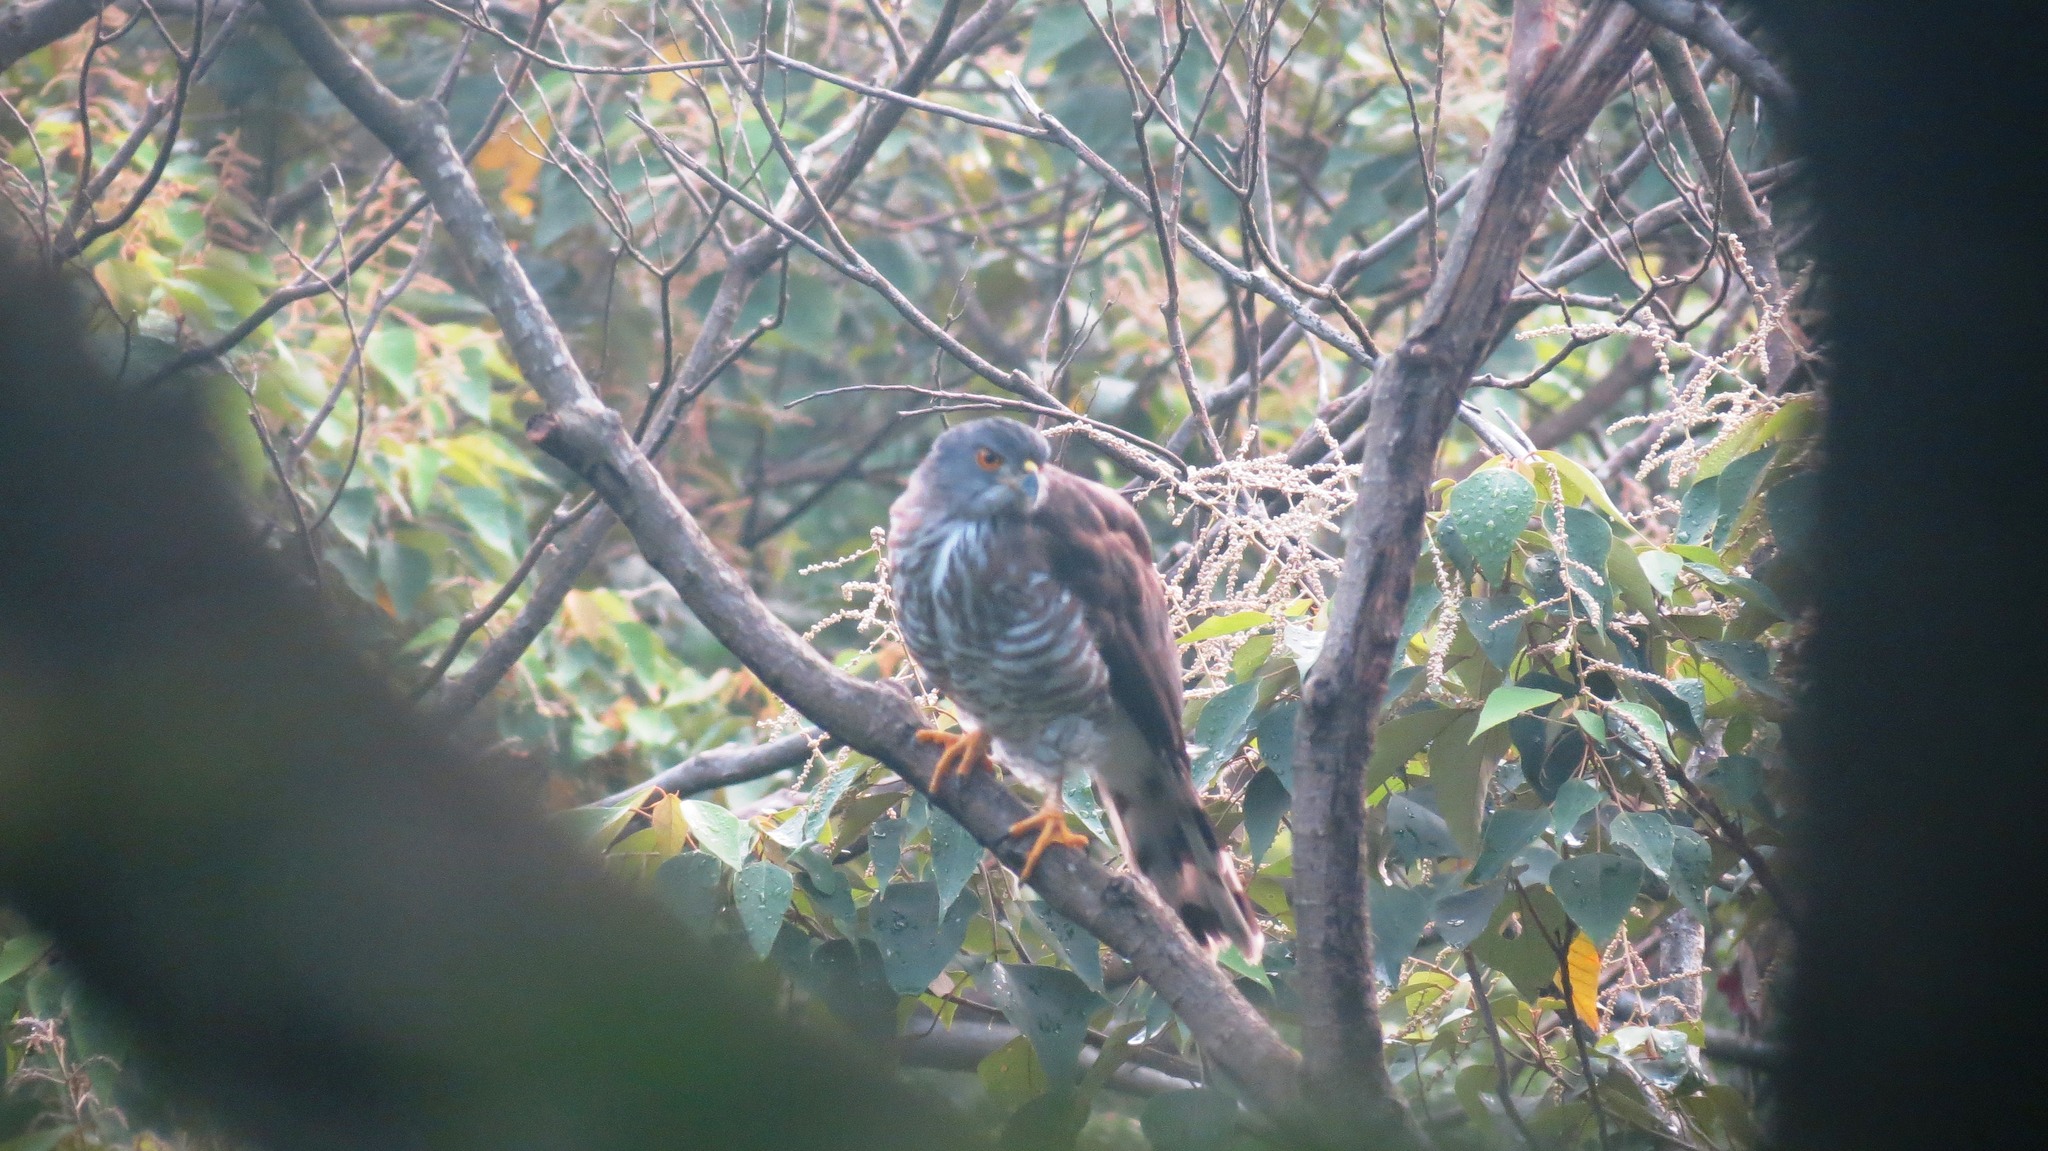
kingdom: Animalia
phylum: Chordata
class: Aves
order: Accipitriformes
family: Accipitridae
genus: Accipiter
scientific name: Accipiter trivirgatus
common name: Crested goshawk
